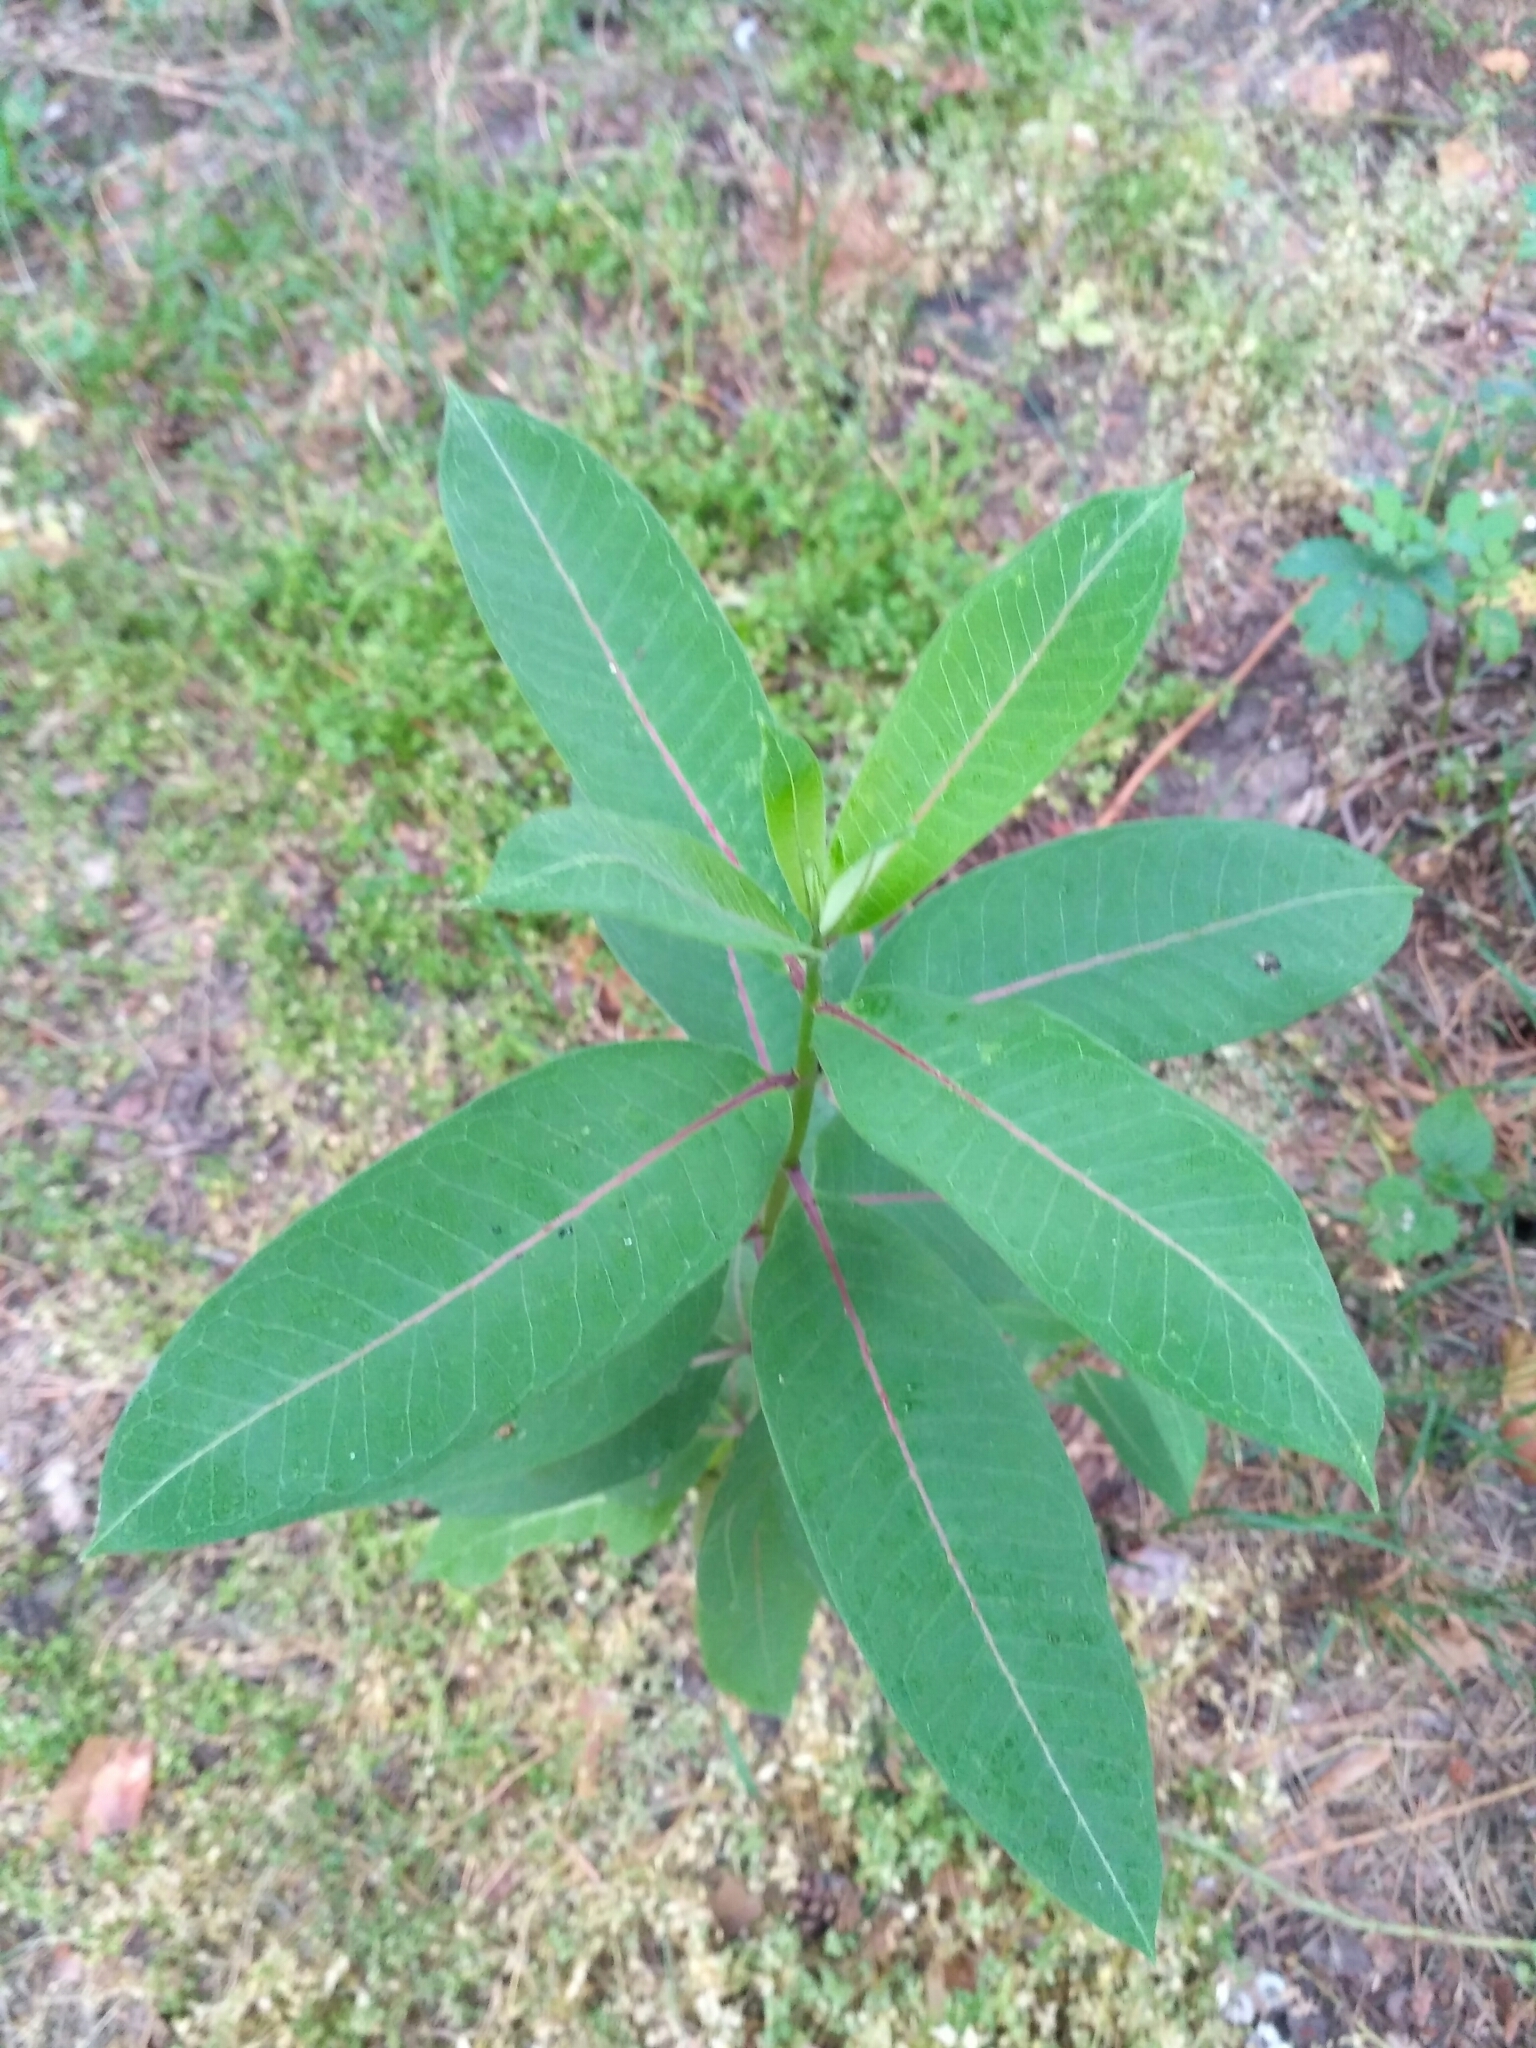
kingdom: Plantae
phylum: Tracheophyta
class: Magnoliopsida
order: Gentianales
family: Apocynaceae
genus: Asclepias
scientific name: Asclepias syriaca
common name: Common milkweed
